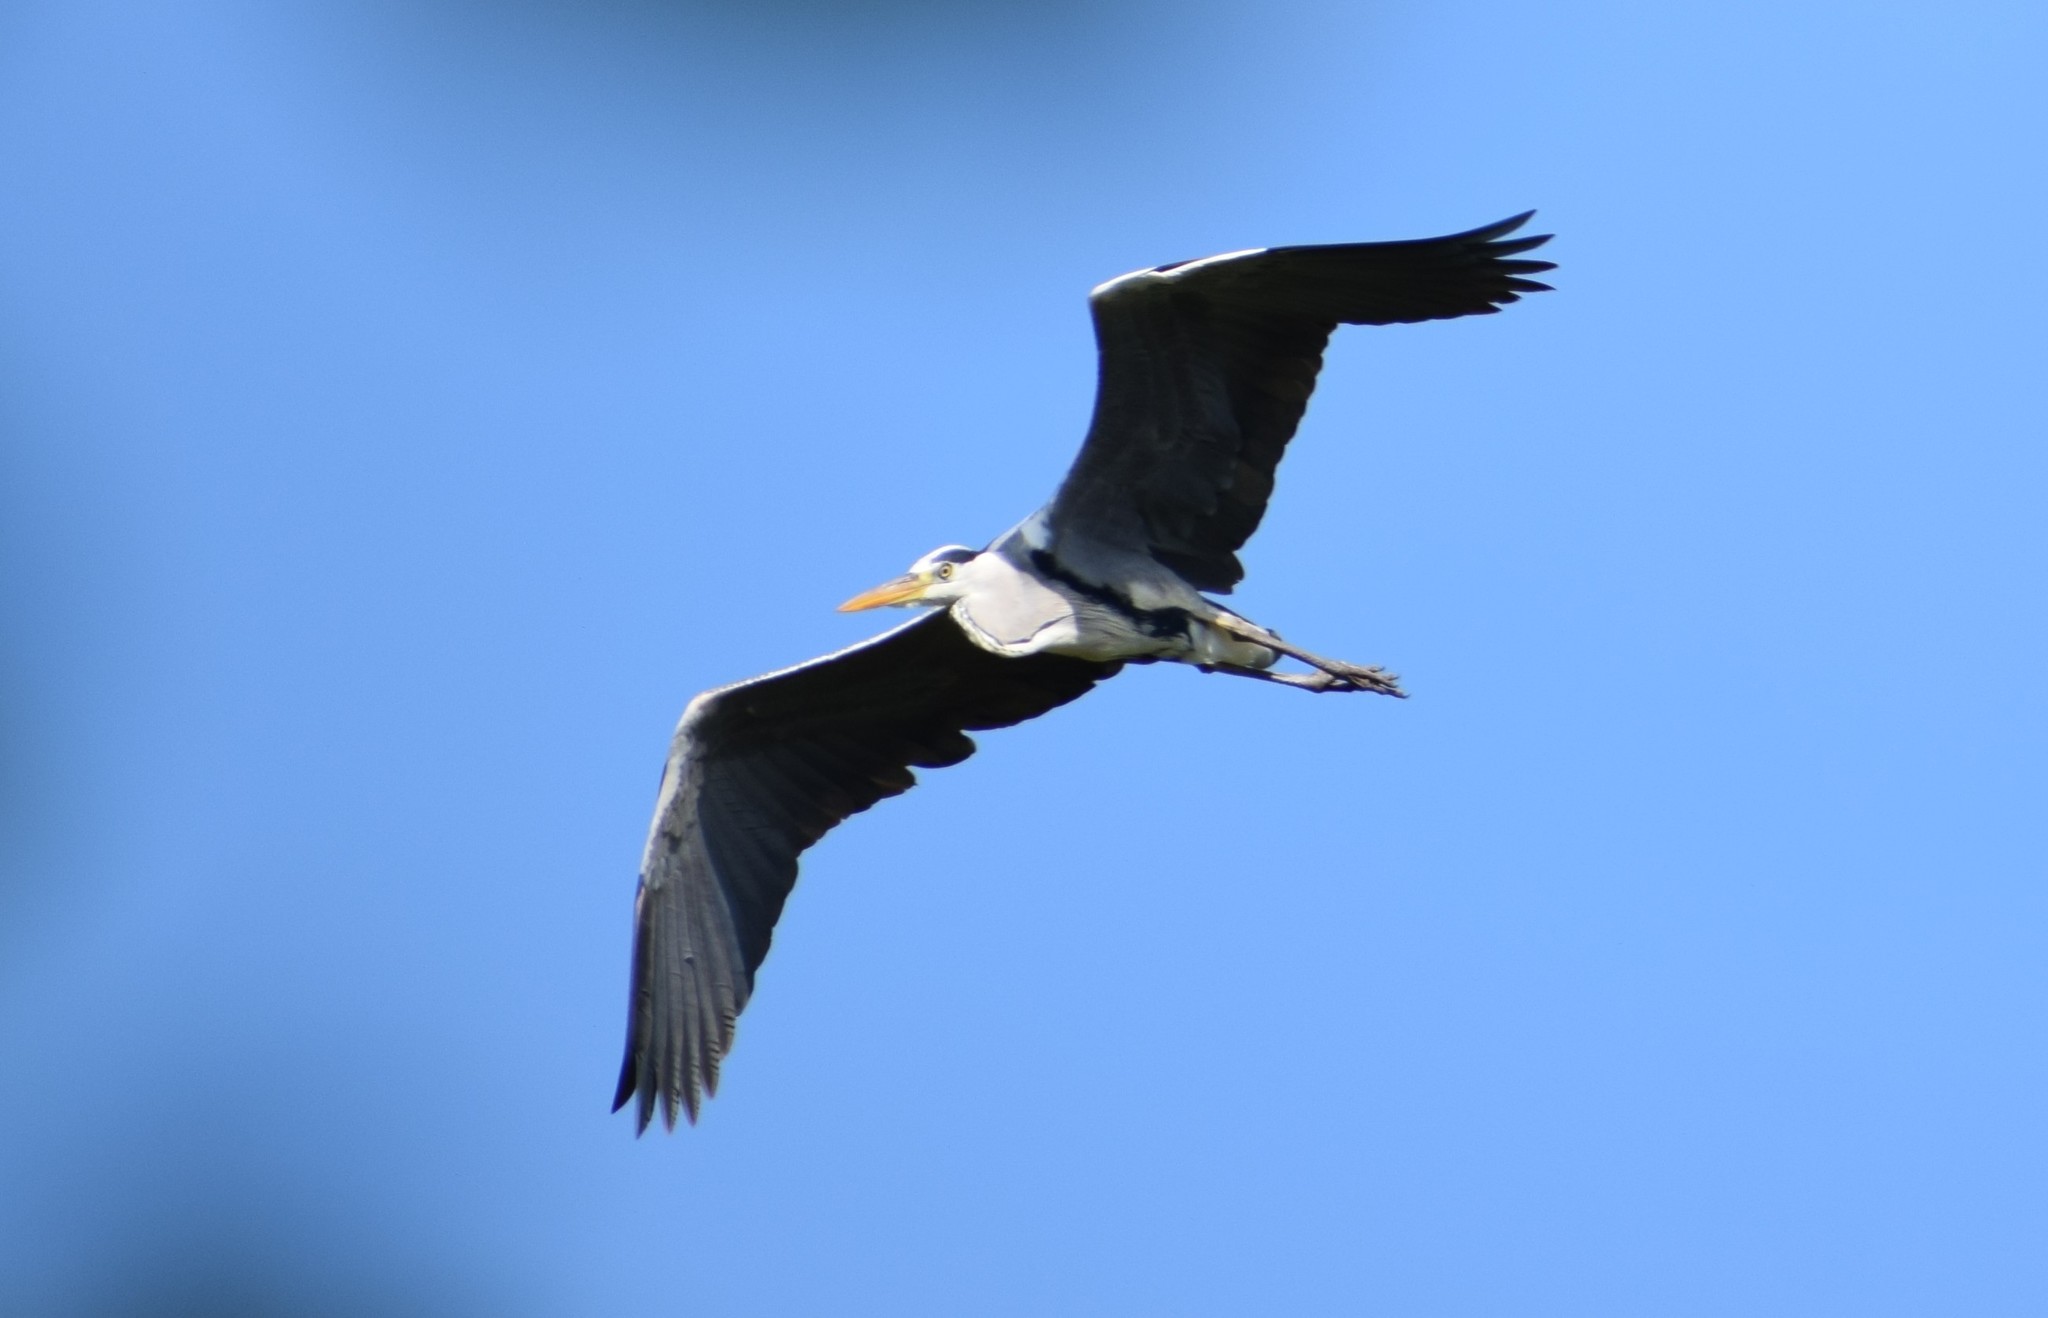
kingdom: Animalia
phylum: Chordata
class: Aves
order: Pelecaniformes
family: Ardeidae
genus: Ardea
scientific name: Ardea cinerea
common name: Grey heron
